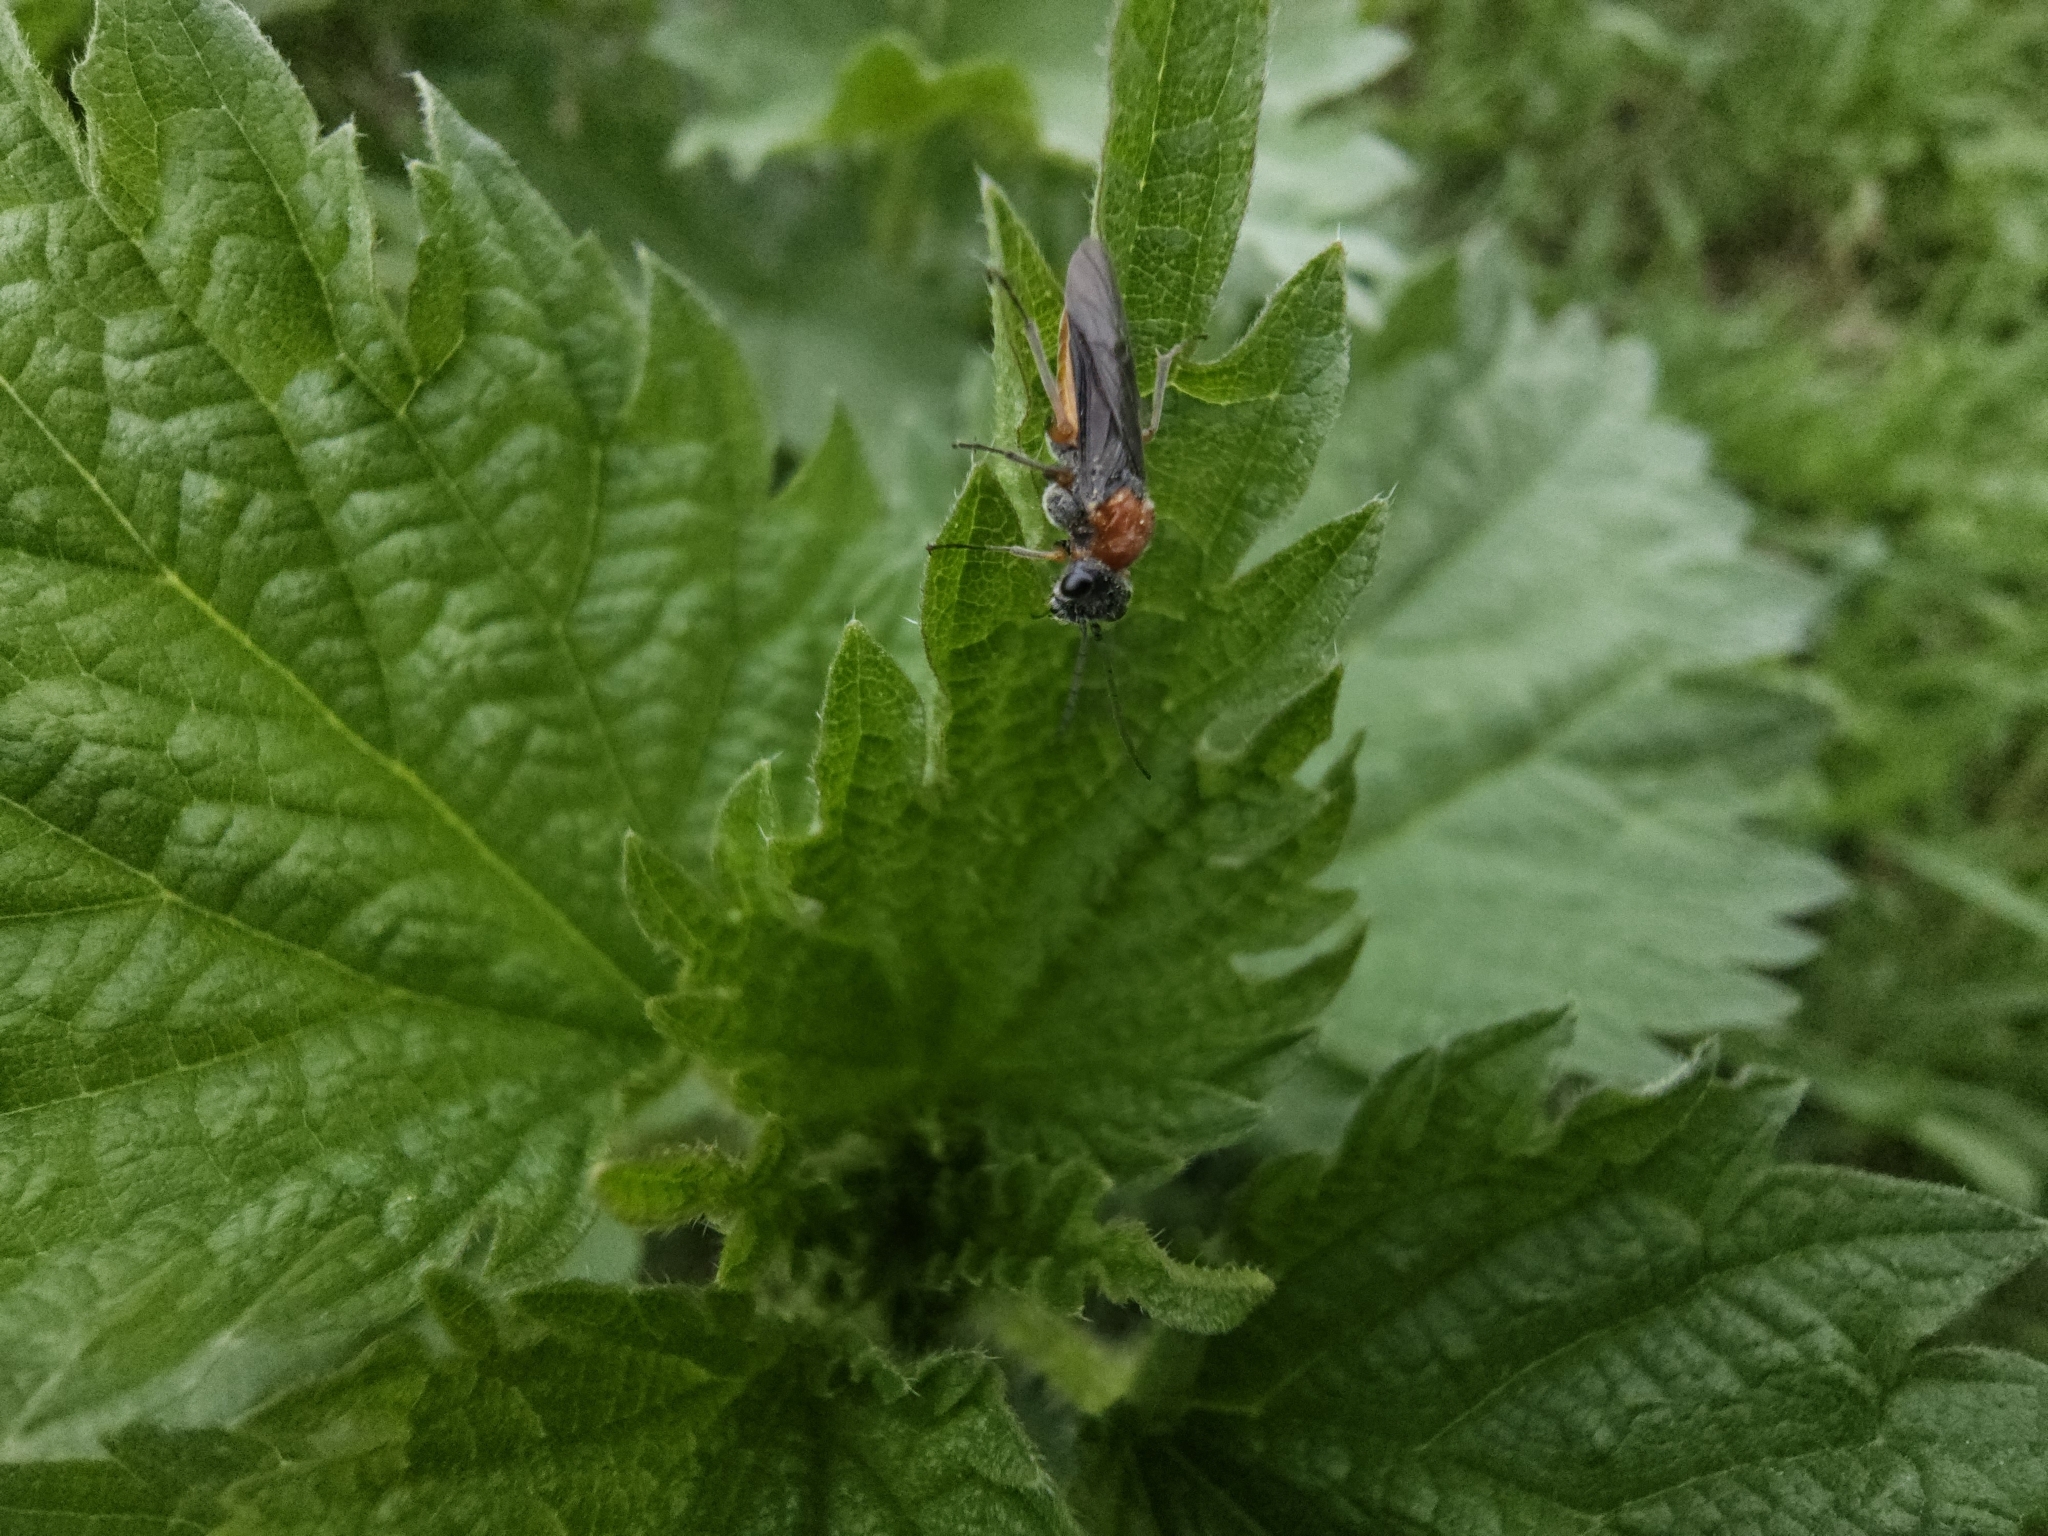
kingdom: Animalia
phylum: Arthropoda
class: Insecta
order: Hymenoptera
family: Tenthredinidae
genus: Dolerus
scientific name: Dolerus germanicus
